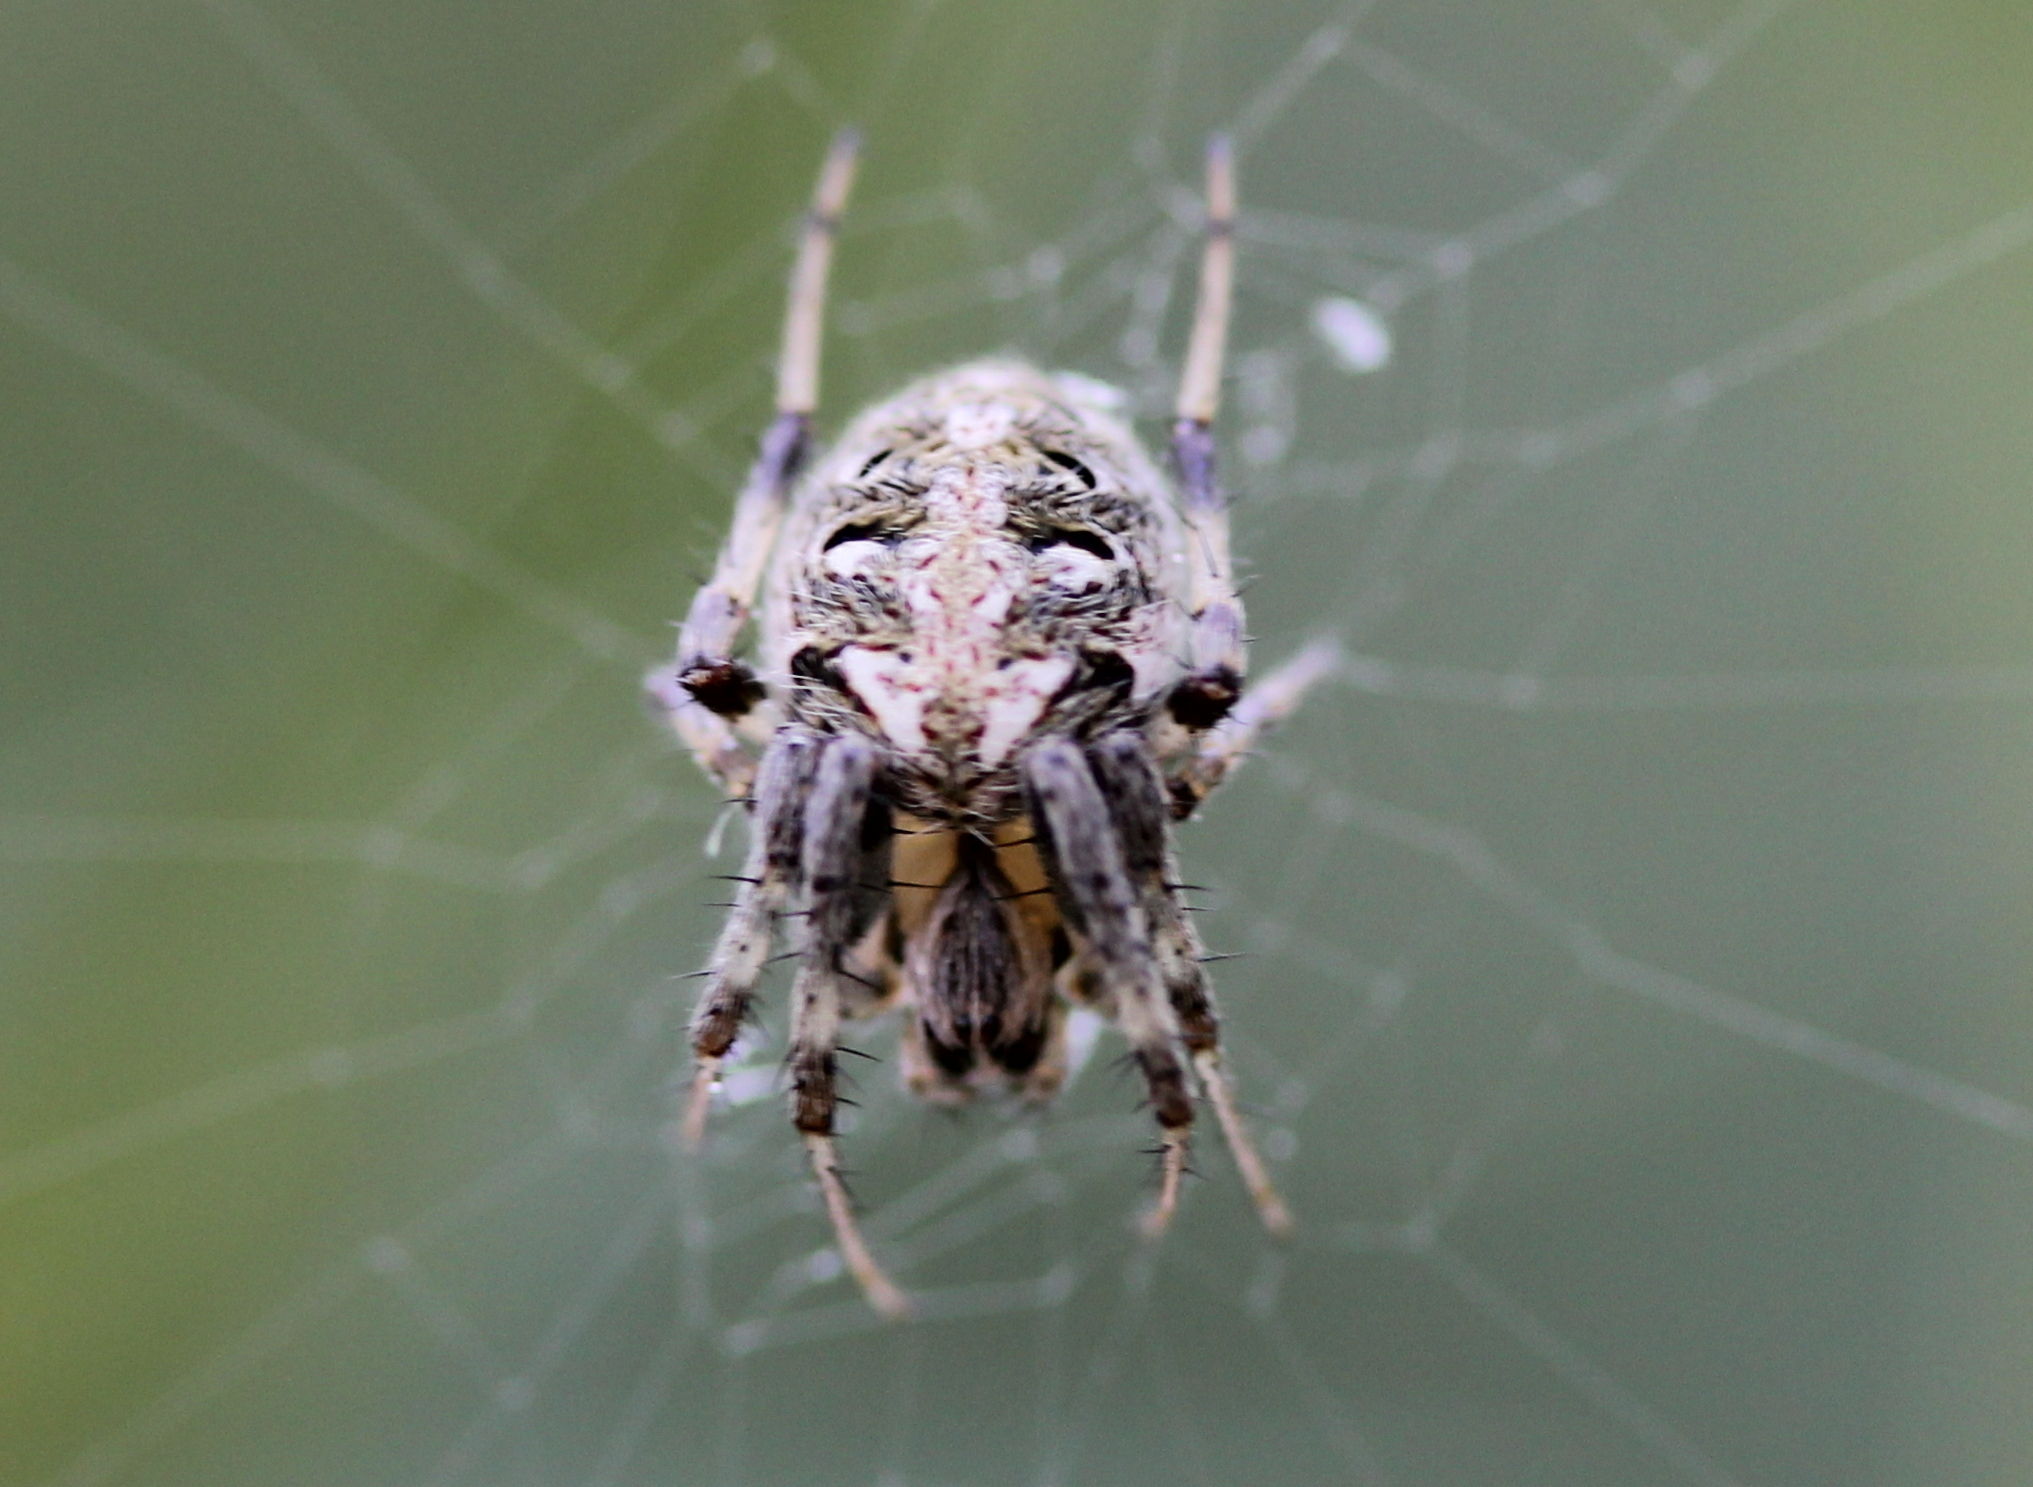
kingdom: Animalia
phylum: Arthropoda
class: Arachnida
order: Araneae
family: Araneidae
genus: Neoscona
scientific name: Neoscona arabesca
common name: Orb weavers
